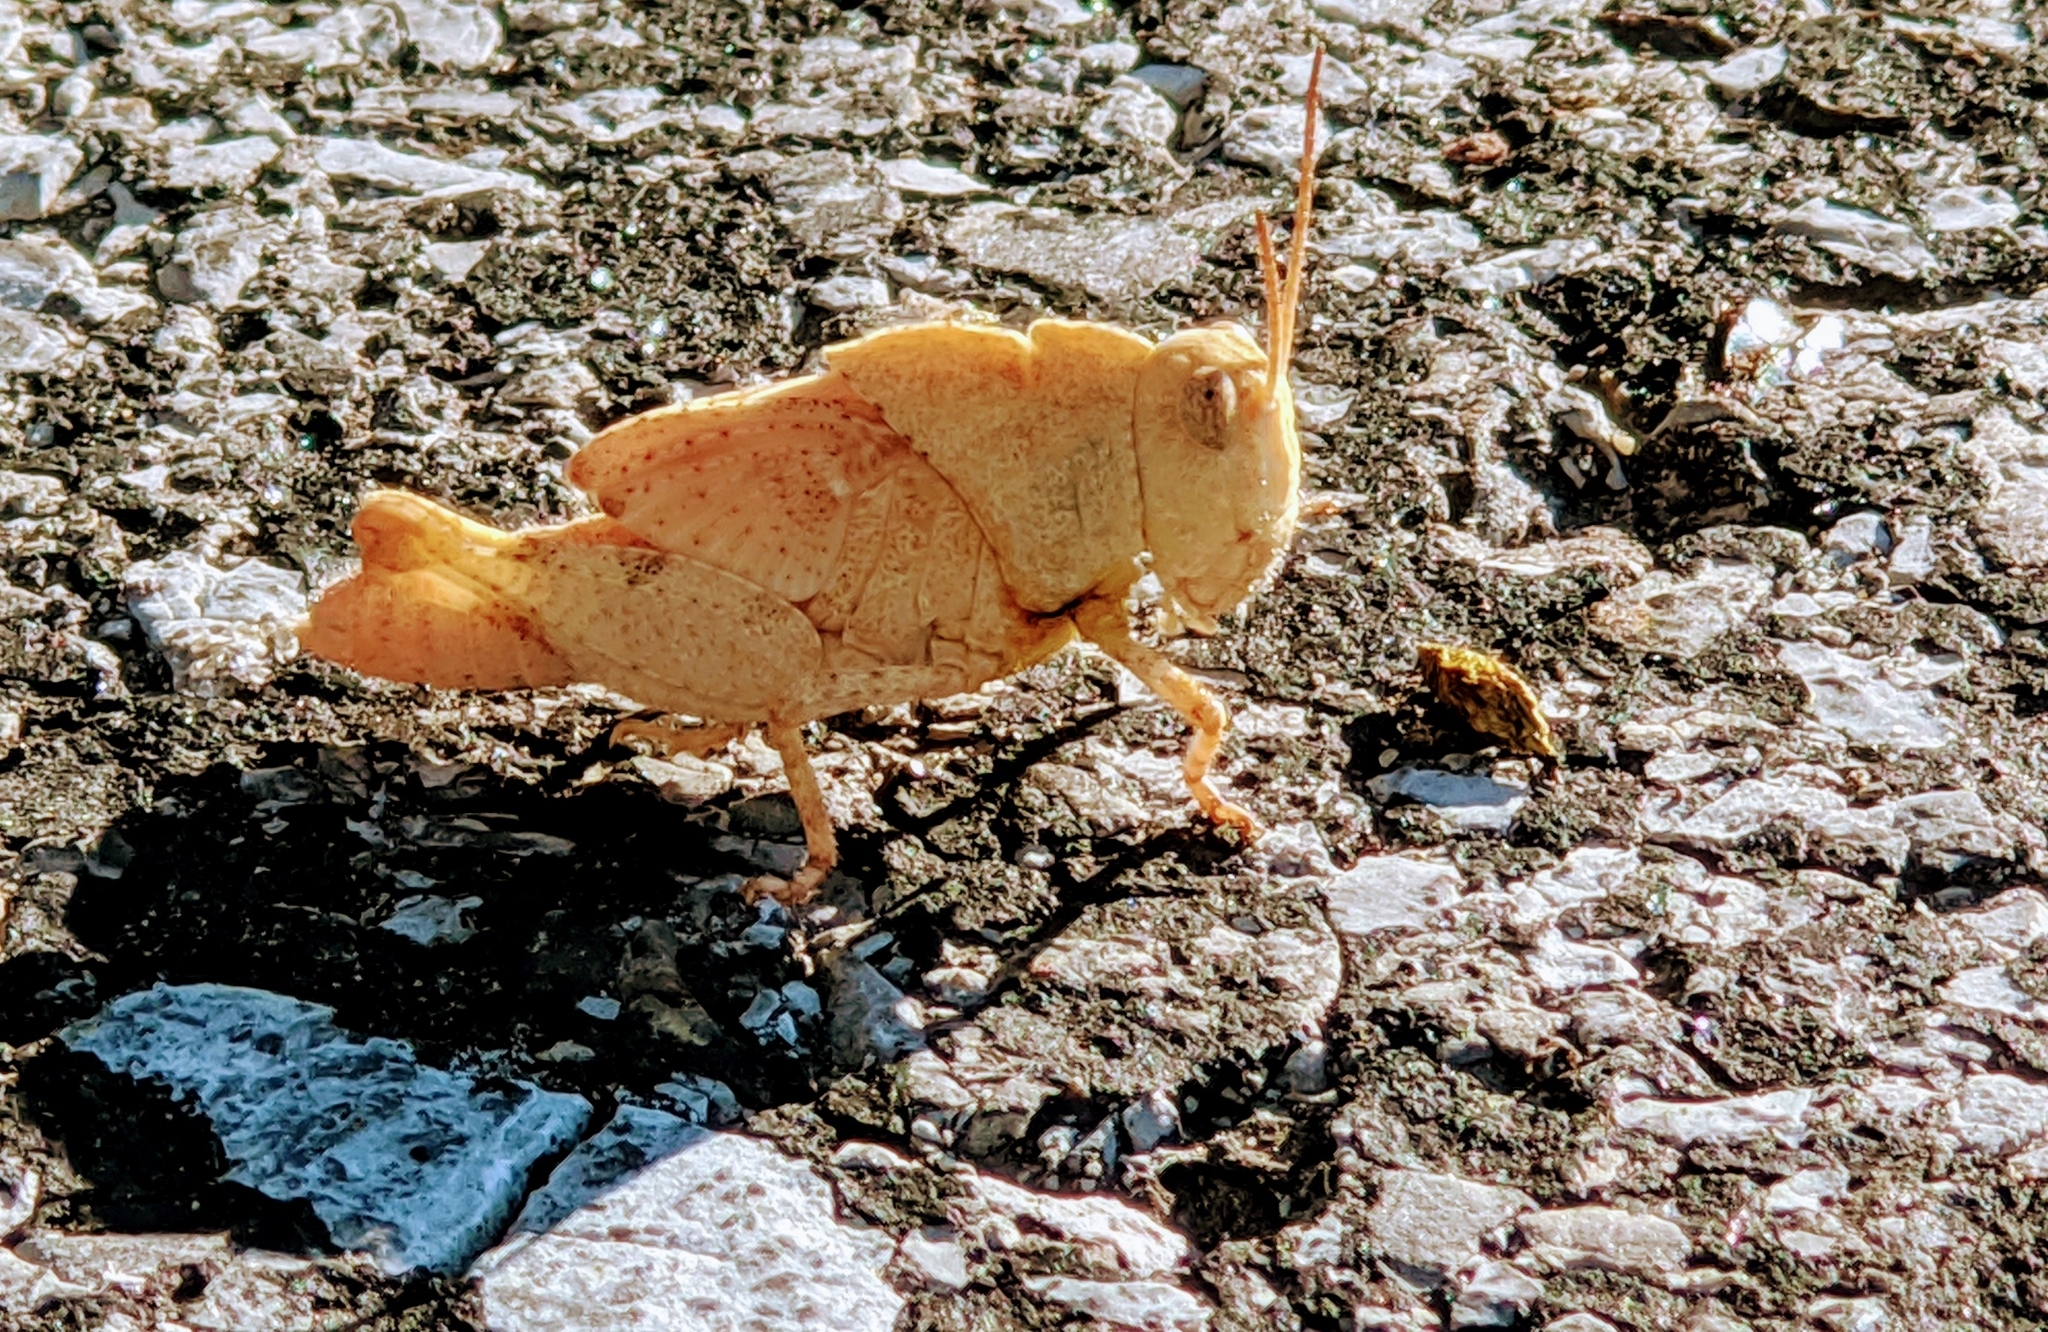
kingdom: Animalia
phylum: Arthropoda
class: Insecta
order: Orthoptera
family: Acrididae
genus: Dissosteira
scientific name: Dissosteira carolina
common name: Carolina grasshopper
